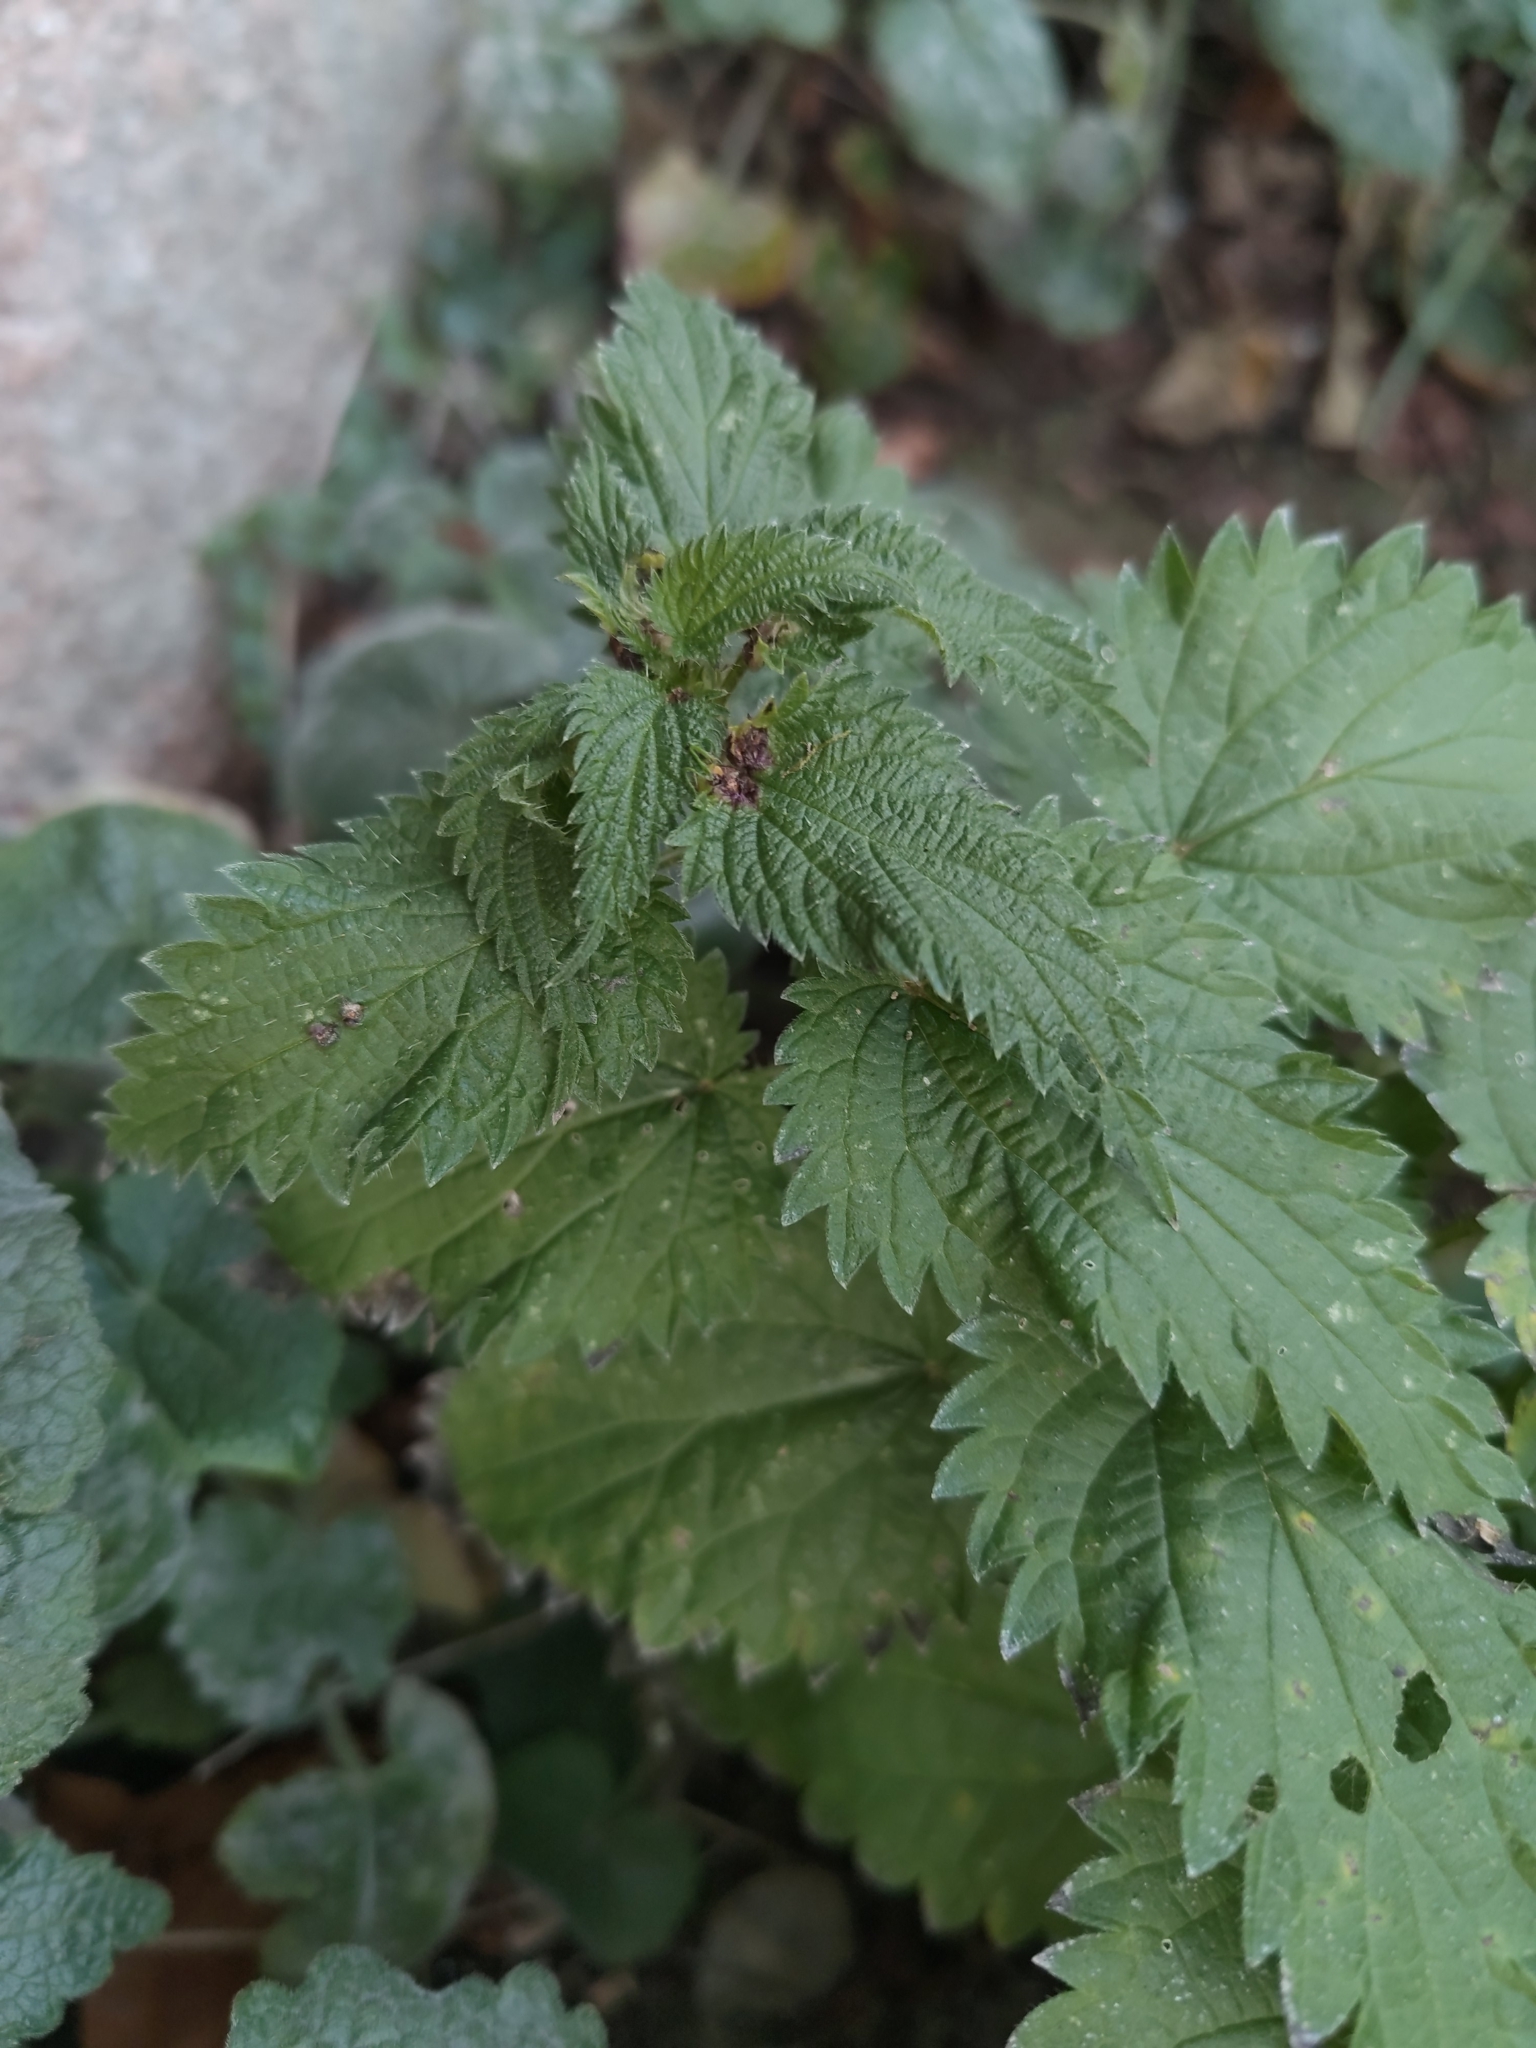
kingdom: Plantae
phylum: Tracheophyta
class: Magnoliopsida
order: Rosales
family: Urticaceae
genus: Urtica
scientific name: Urtica urens
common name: Dwarf nettle
